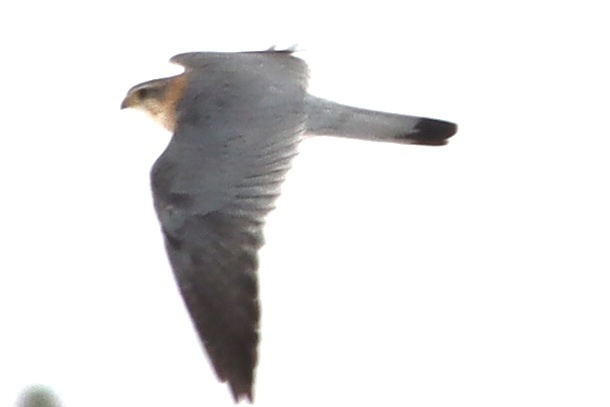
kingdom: Animalia
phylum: Chordata
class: Aves
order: Falconiformes
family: Falconidae
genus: Falco
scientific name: Falco columbarius
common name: Merlin
